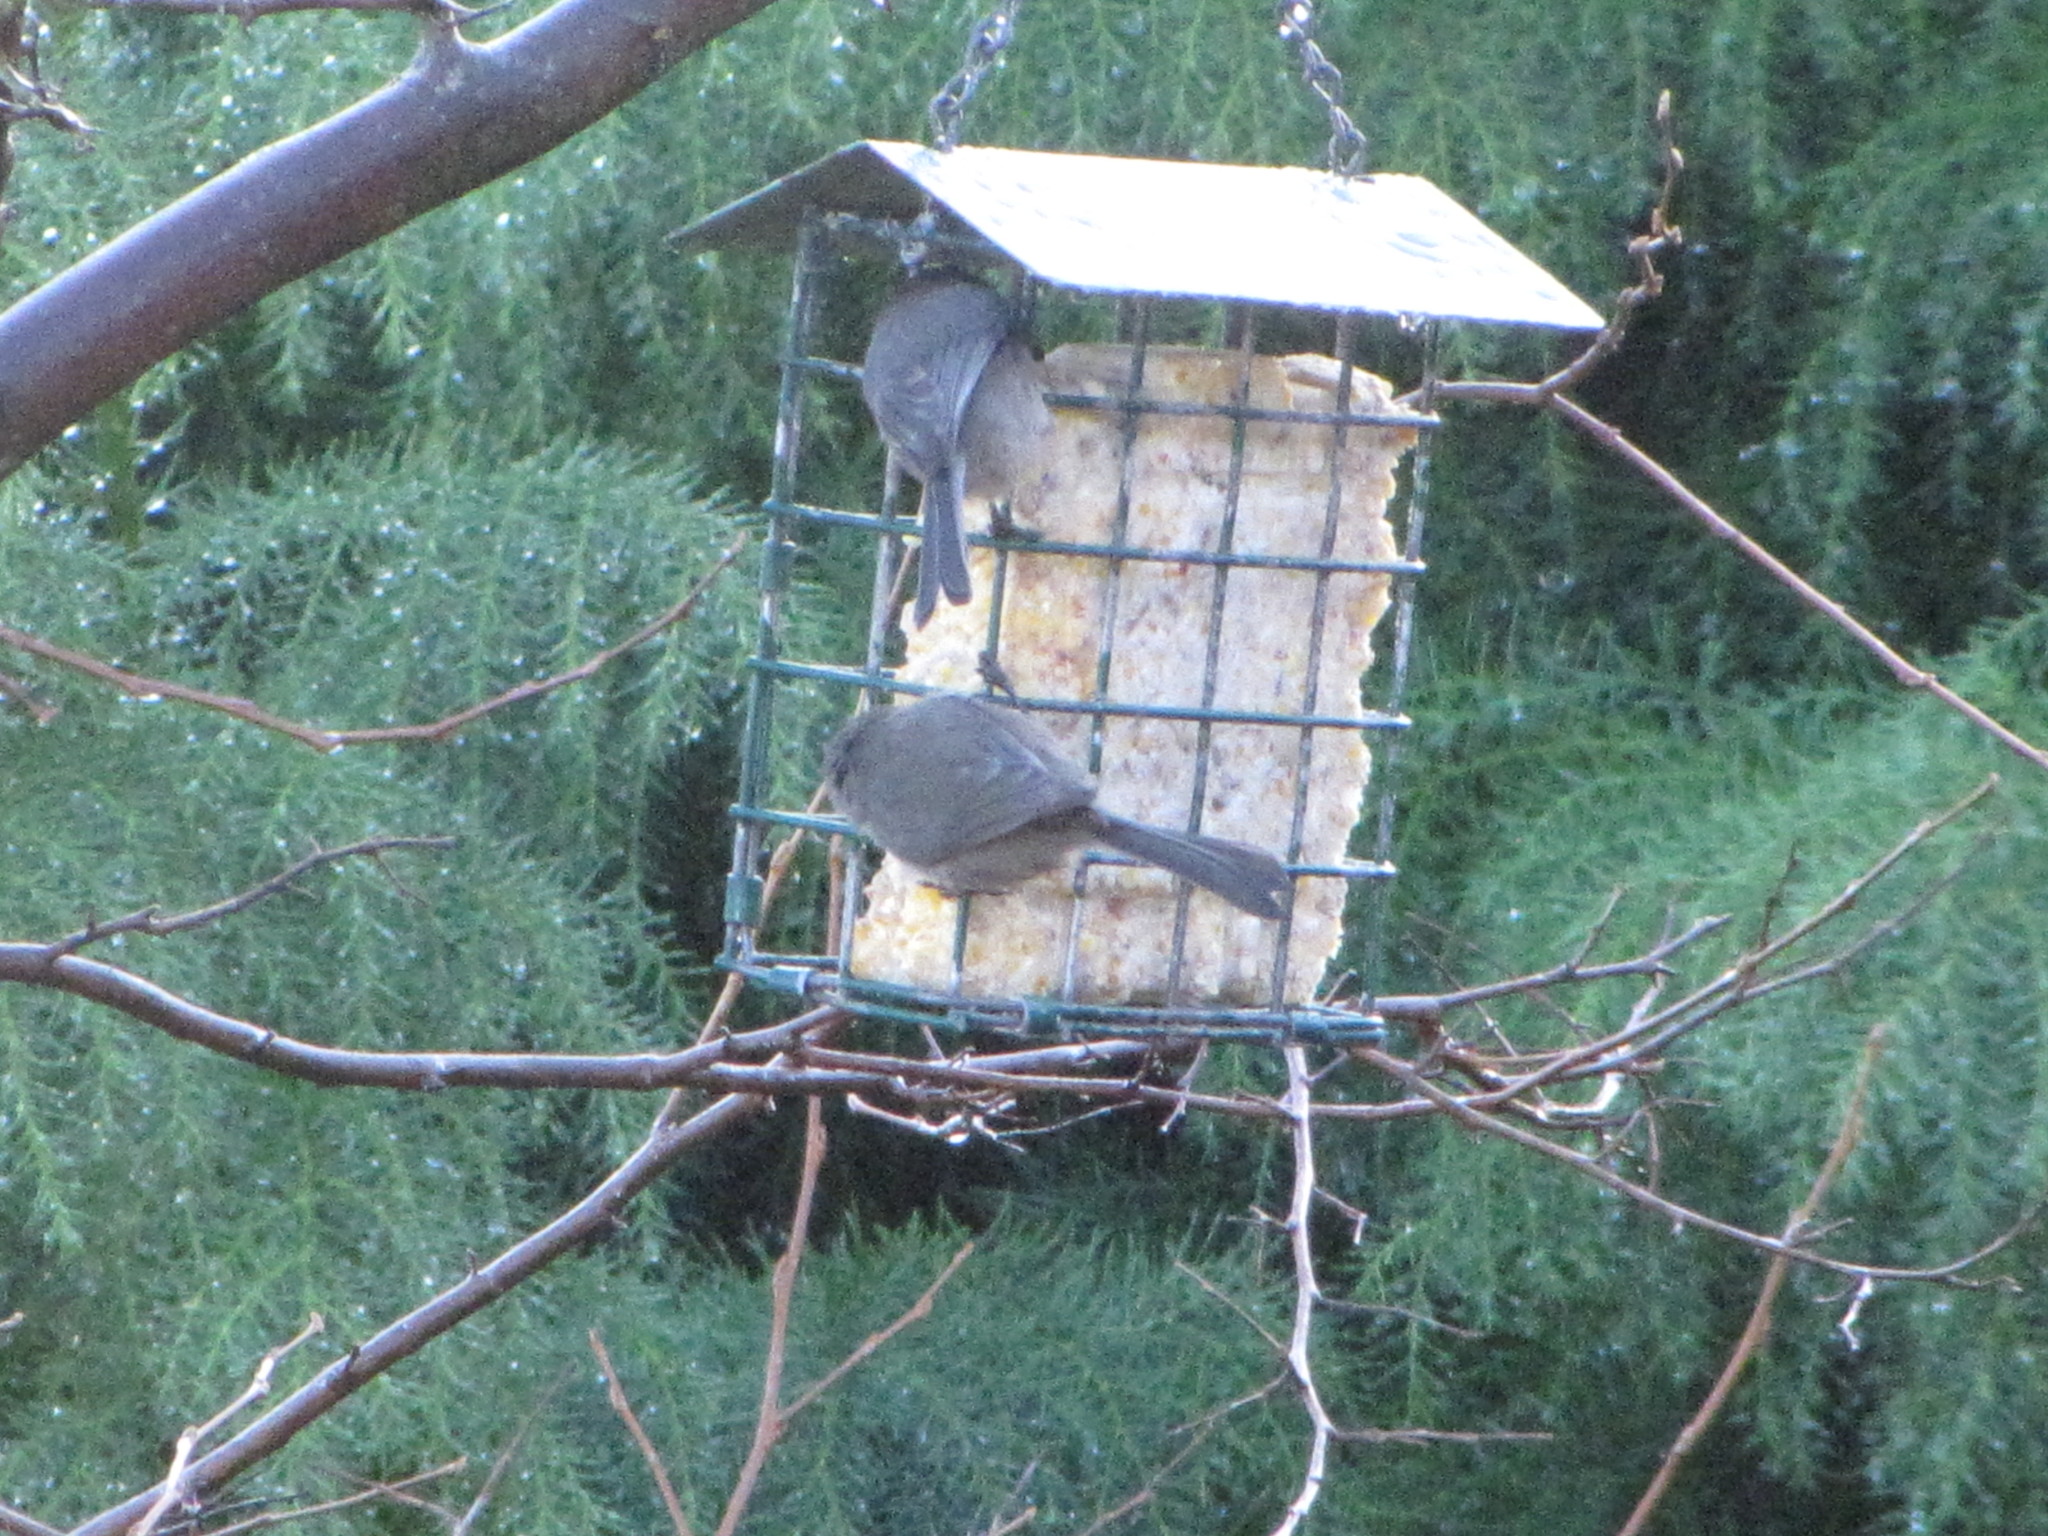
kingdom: Animalia
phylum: Chordata
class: Aves
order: Passeriformes
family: Aegithalidae
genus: Psaltriparus
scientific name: Psaltriparus minimus
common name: American bushtit
